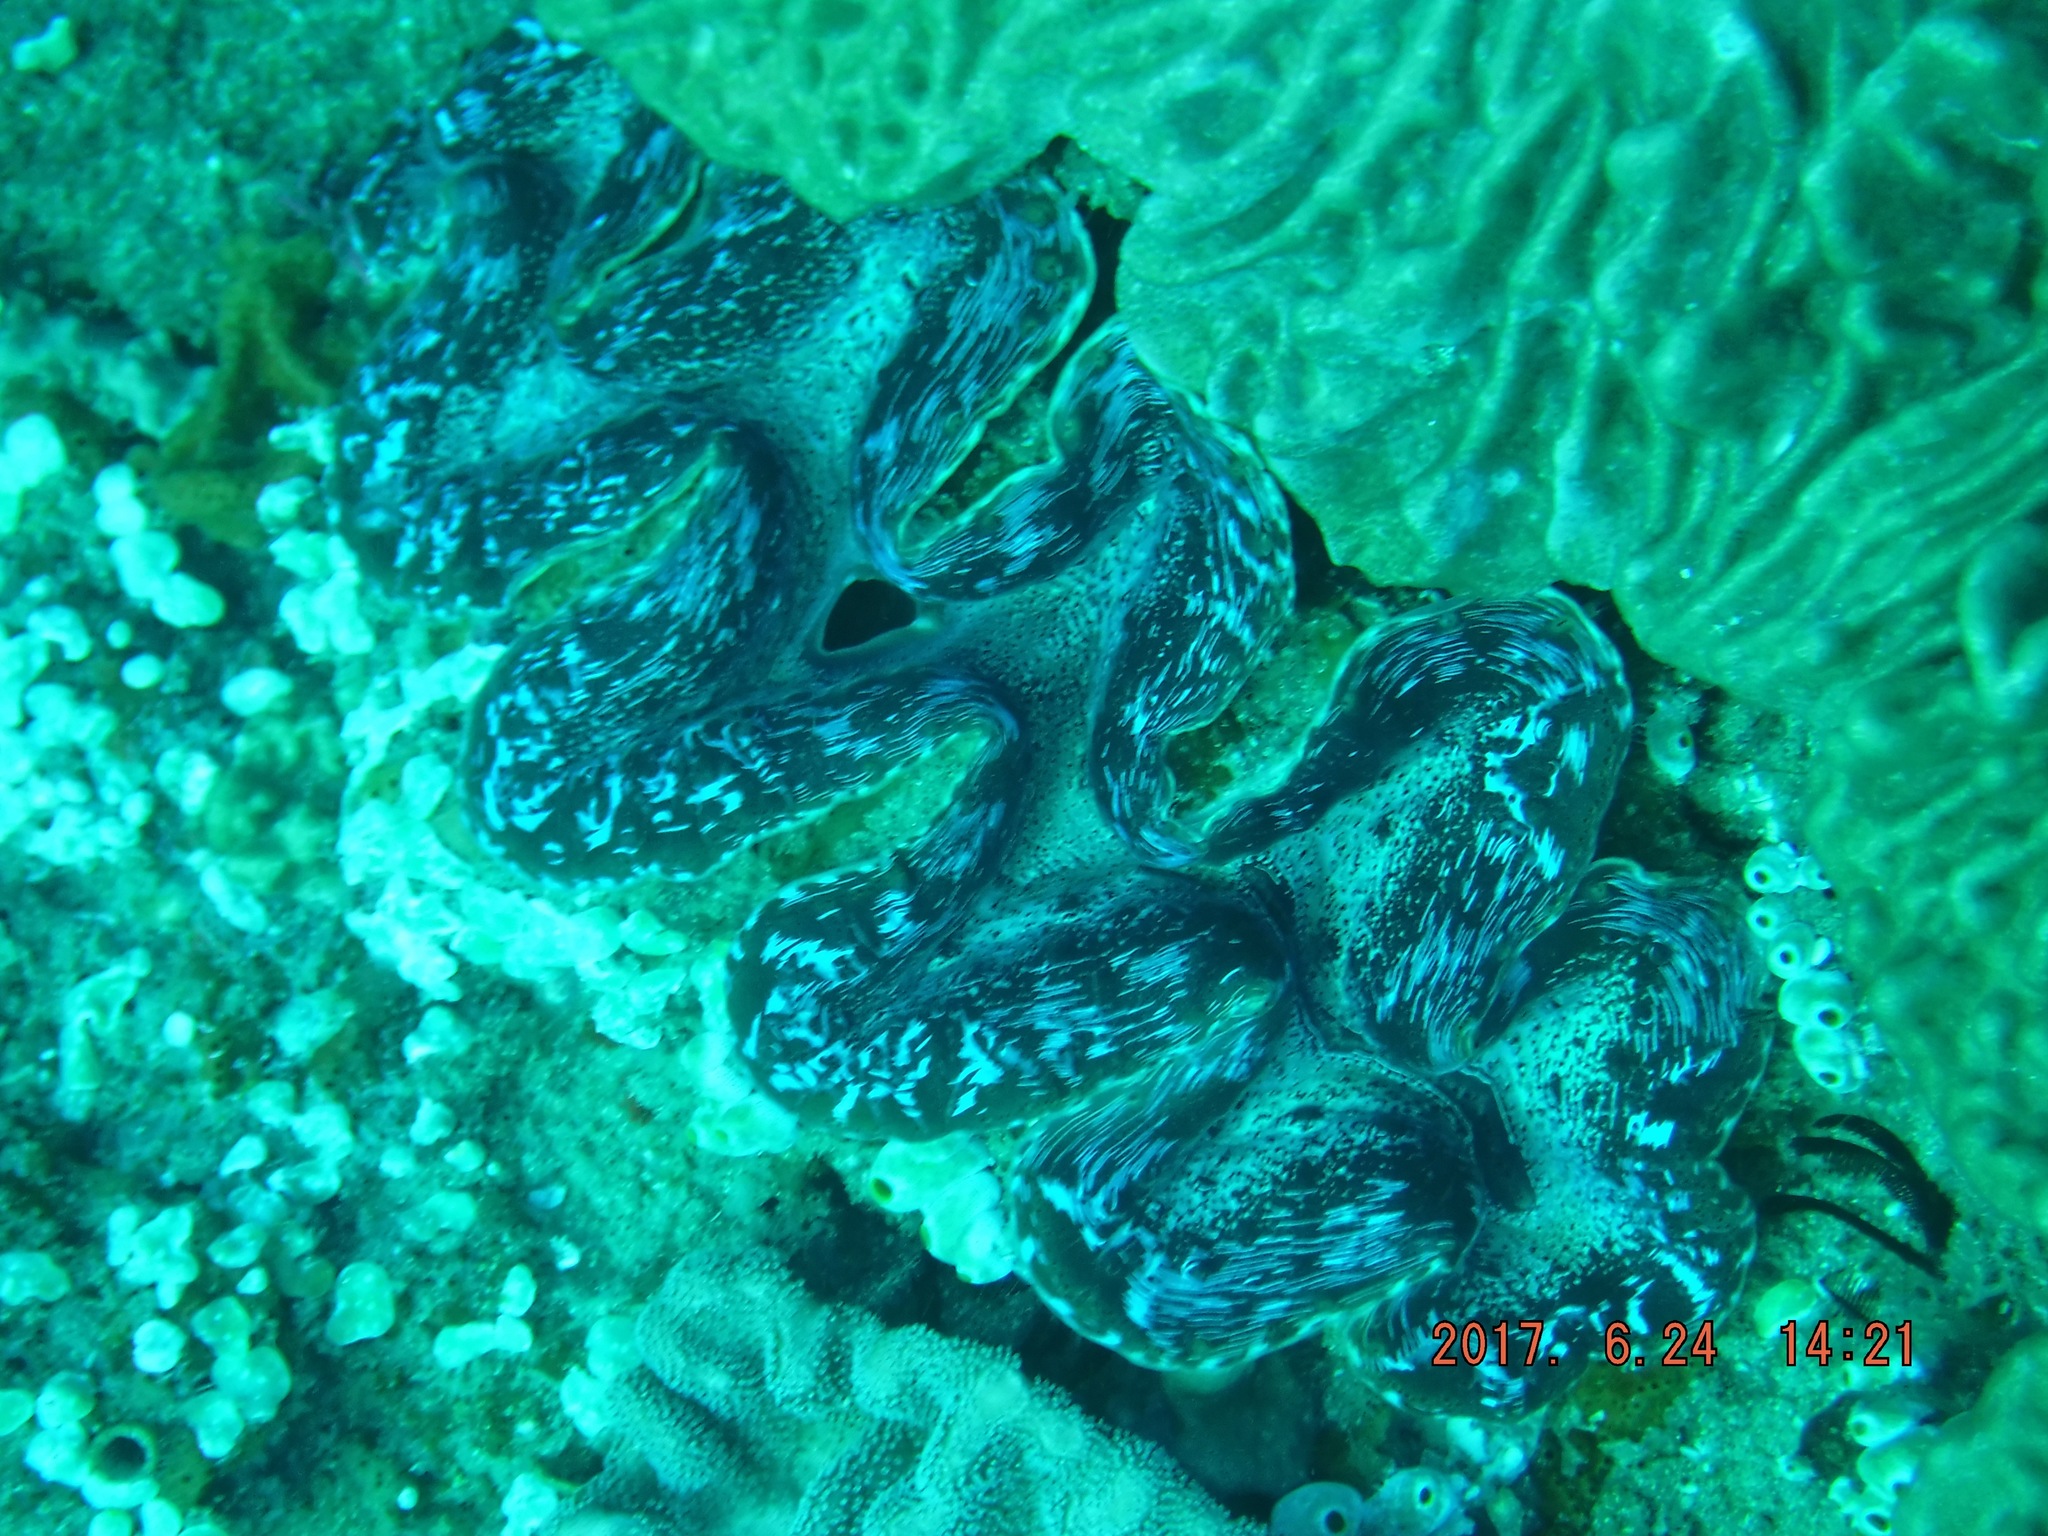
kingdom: Animalia
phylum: Mollusca
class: Bivalvia
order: Cardiida
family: Cardiidae
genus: Tridacna
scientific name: Tridacna elongatissima
